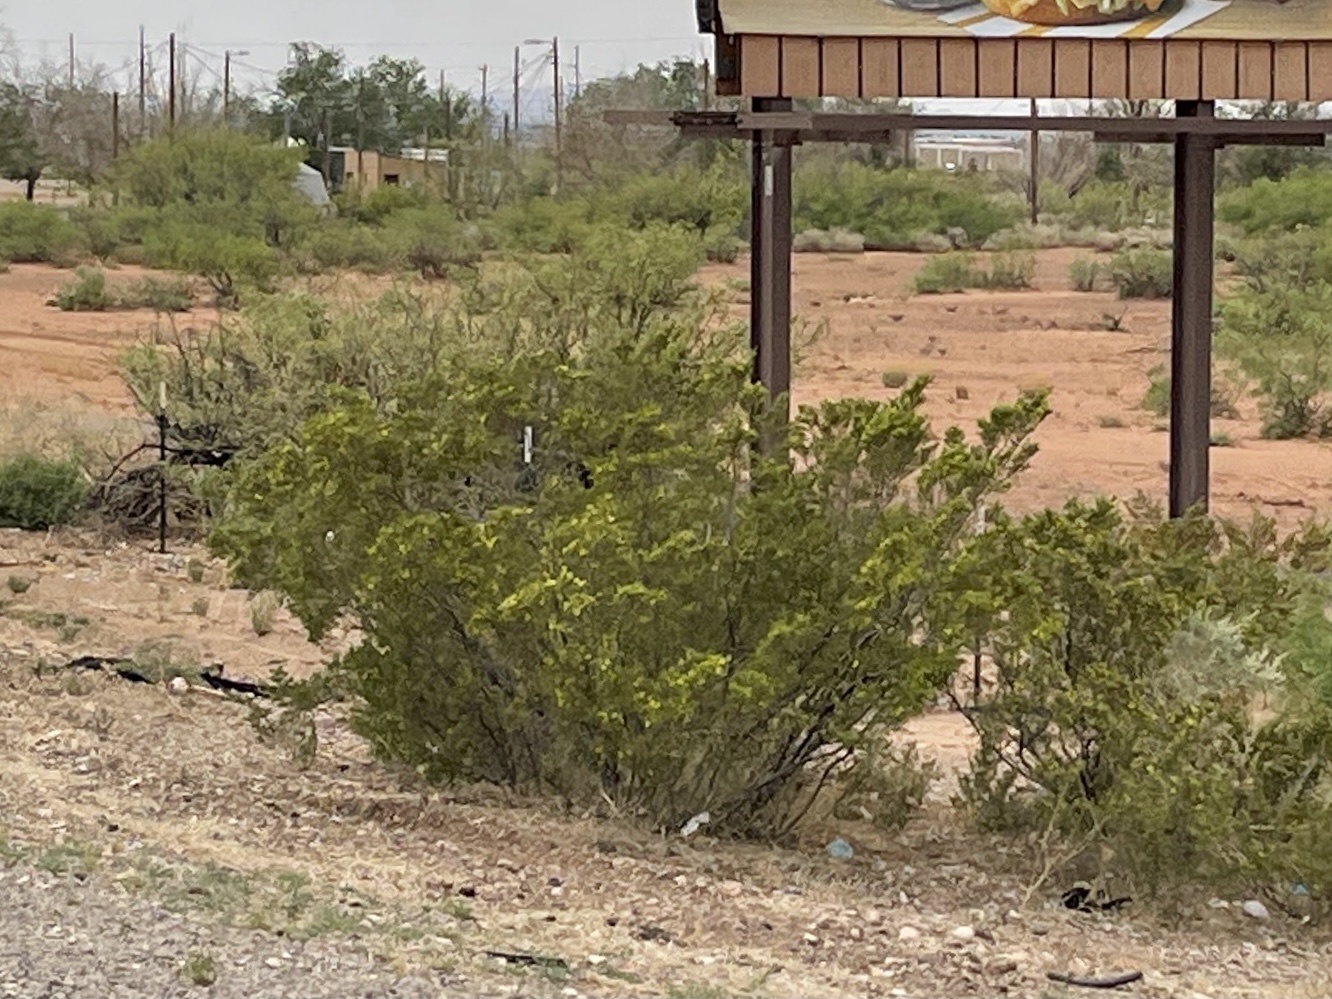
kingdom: Plantae
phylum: Tracheophyta
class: Magnoliopsida
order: Zygophyllales
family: Zygophyllaceae
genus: Larrea
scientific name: Larrea tridentata
